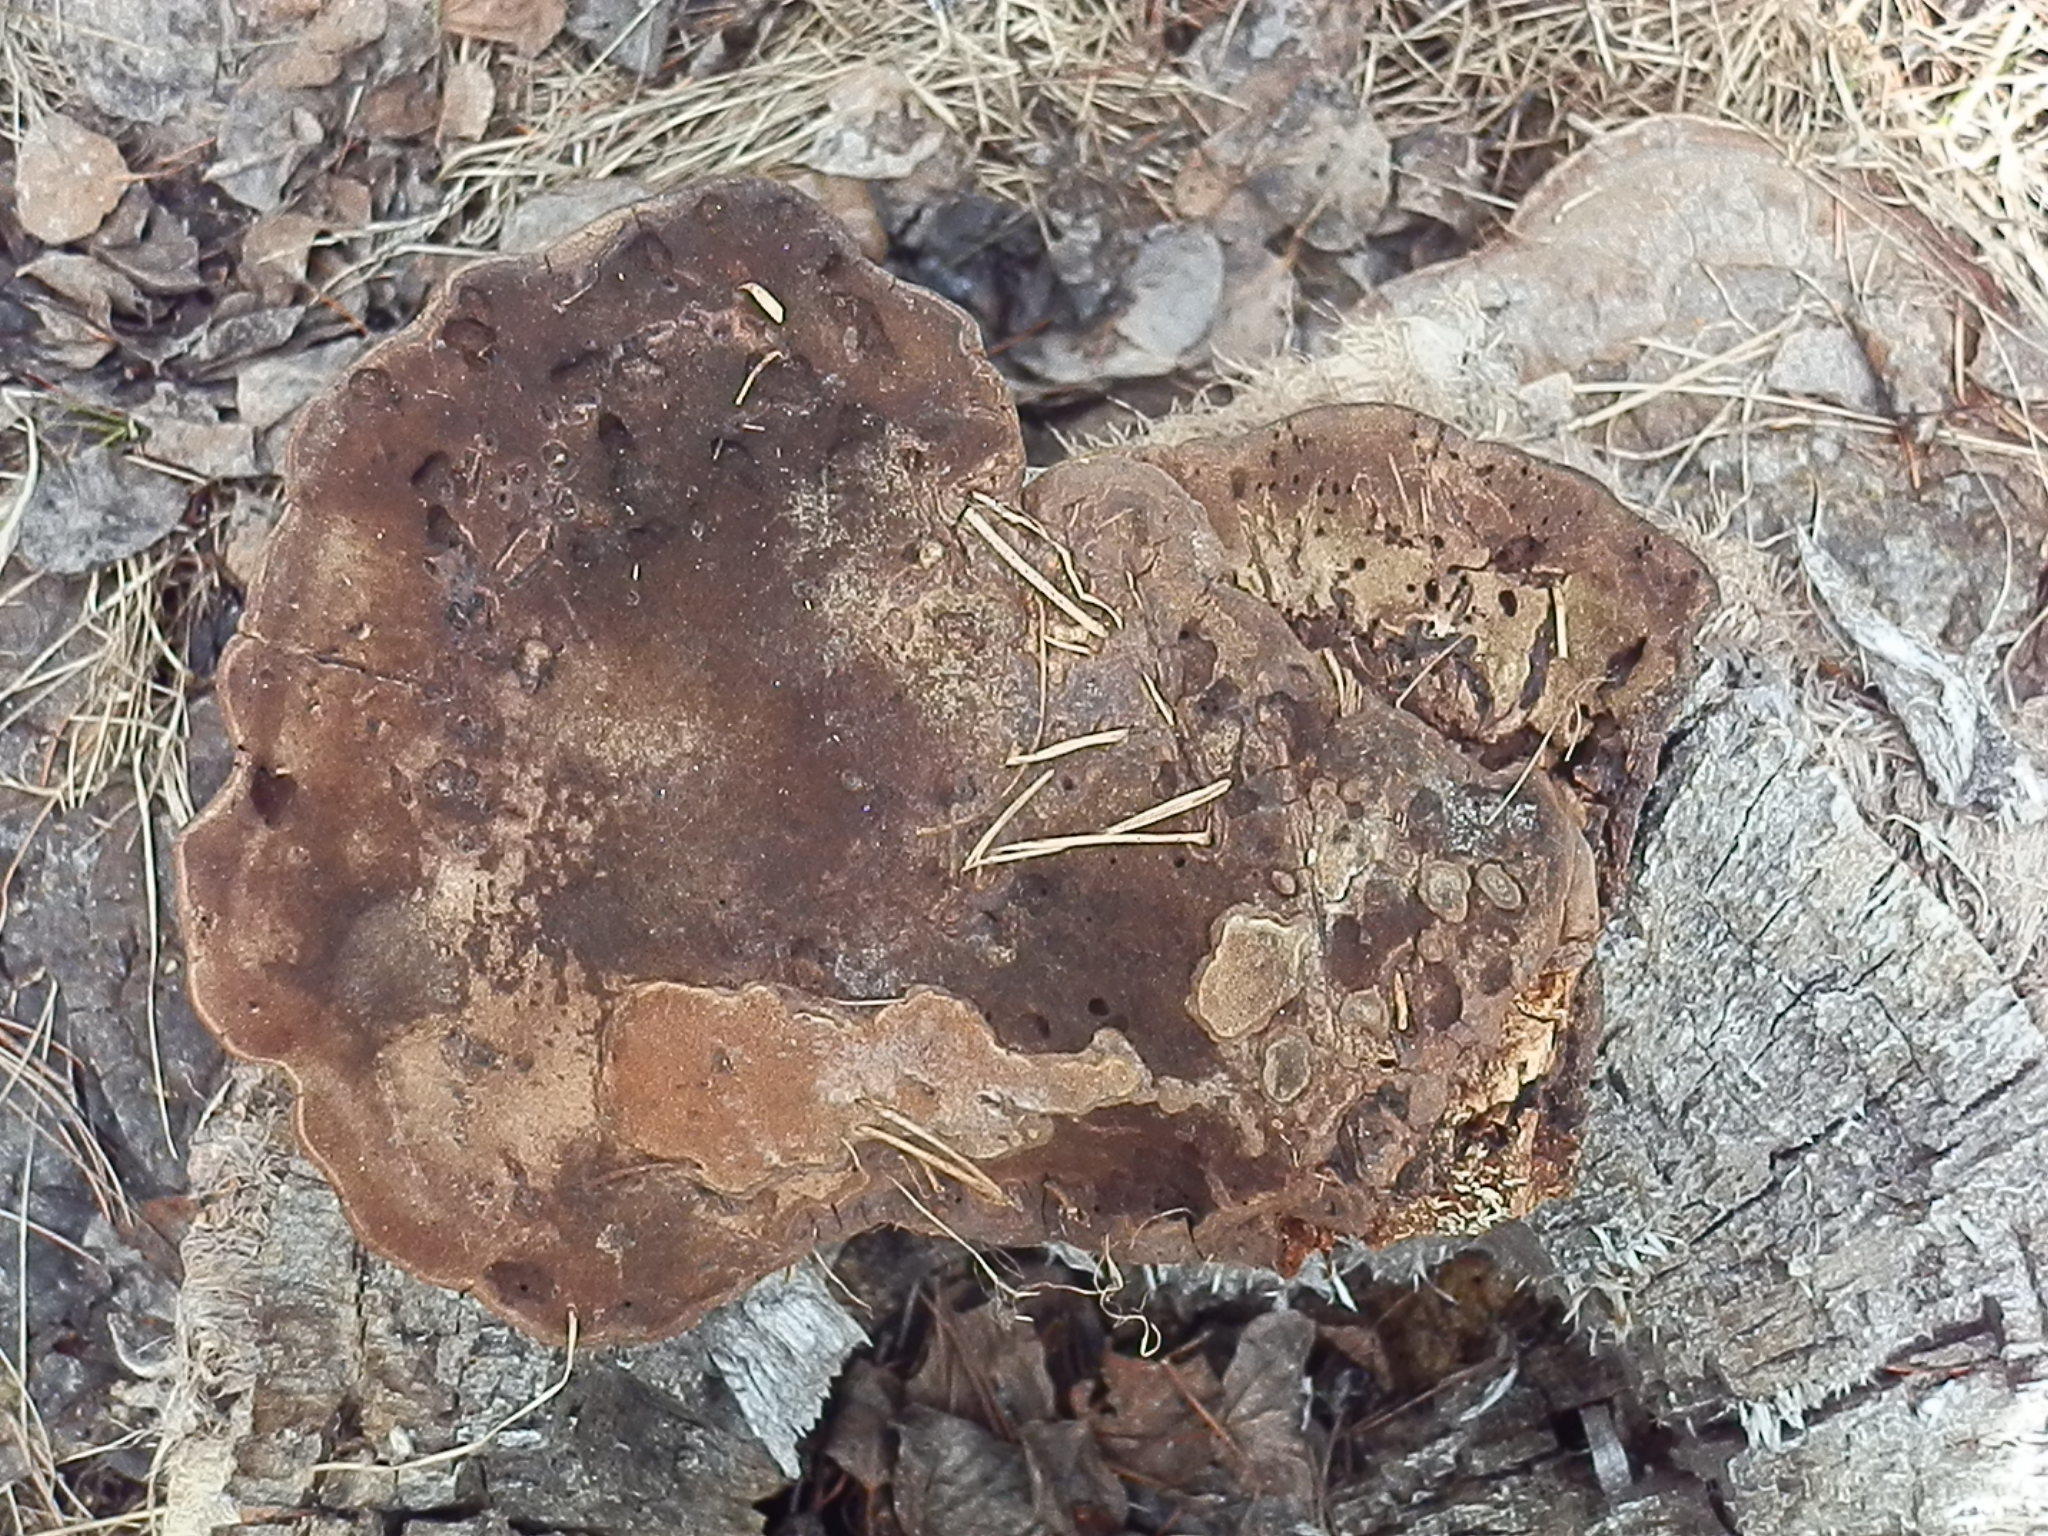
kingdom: Fungi
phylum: Basidiomycota
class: Agaricomycetes
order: Polyporales
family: Polyporaceae
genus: Ganoderma
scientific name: Ganoderma applanatum
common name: Artist's bracket
